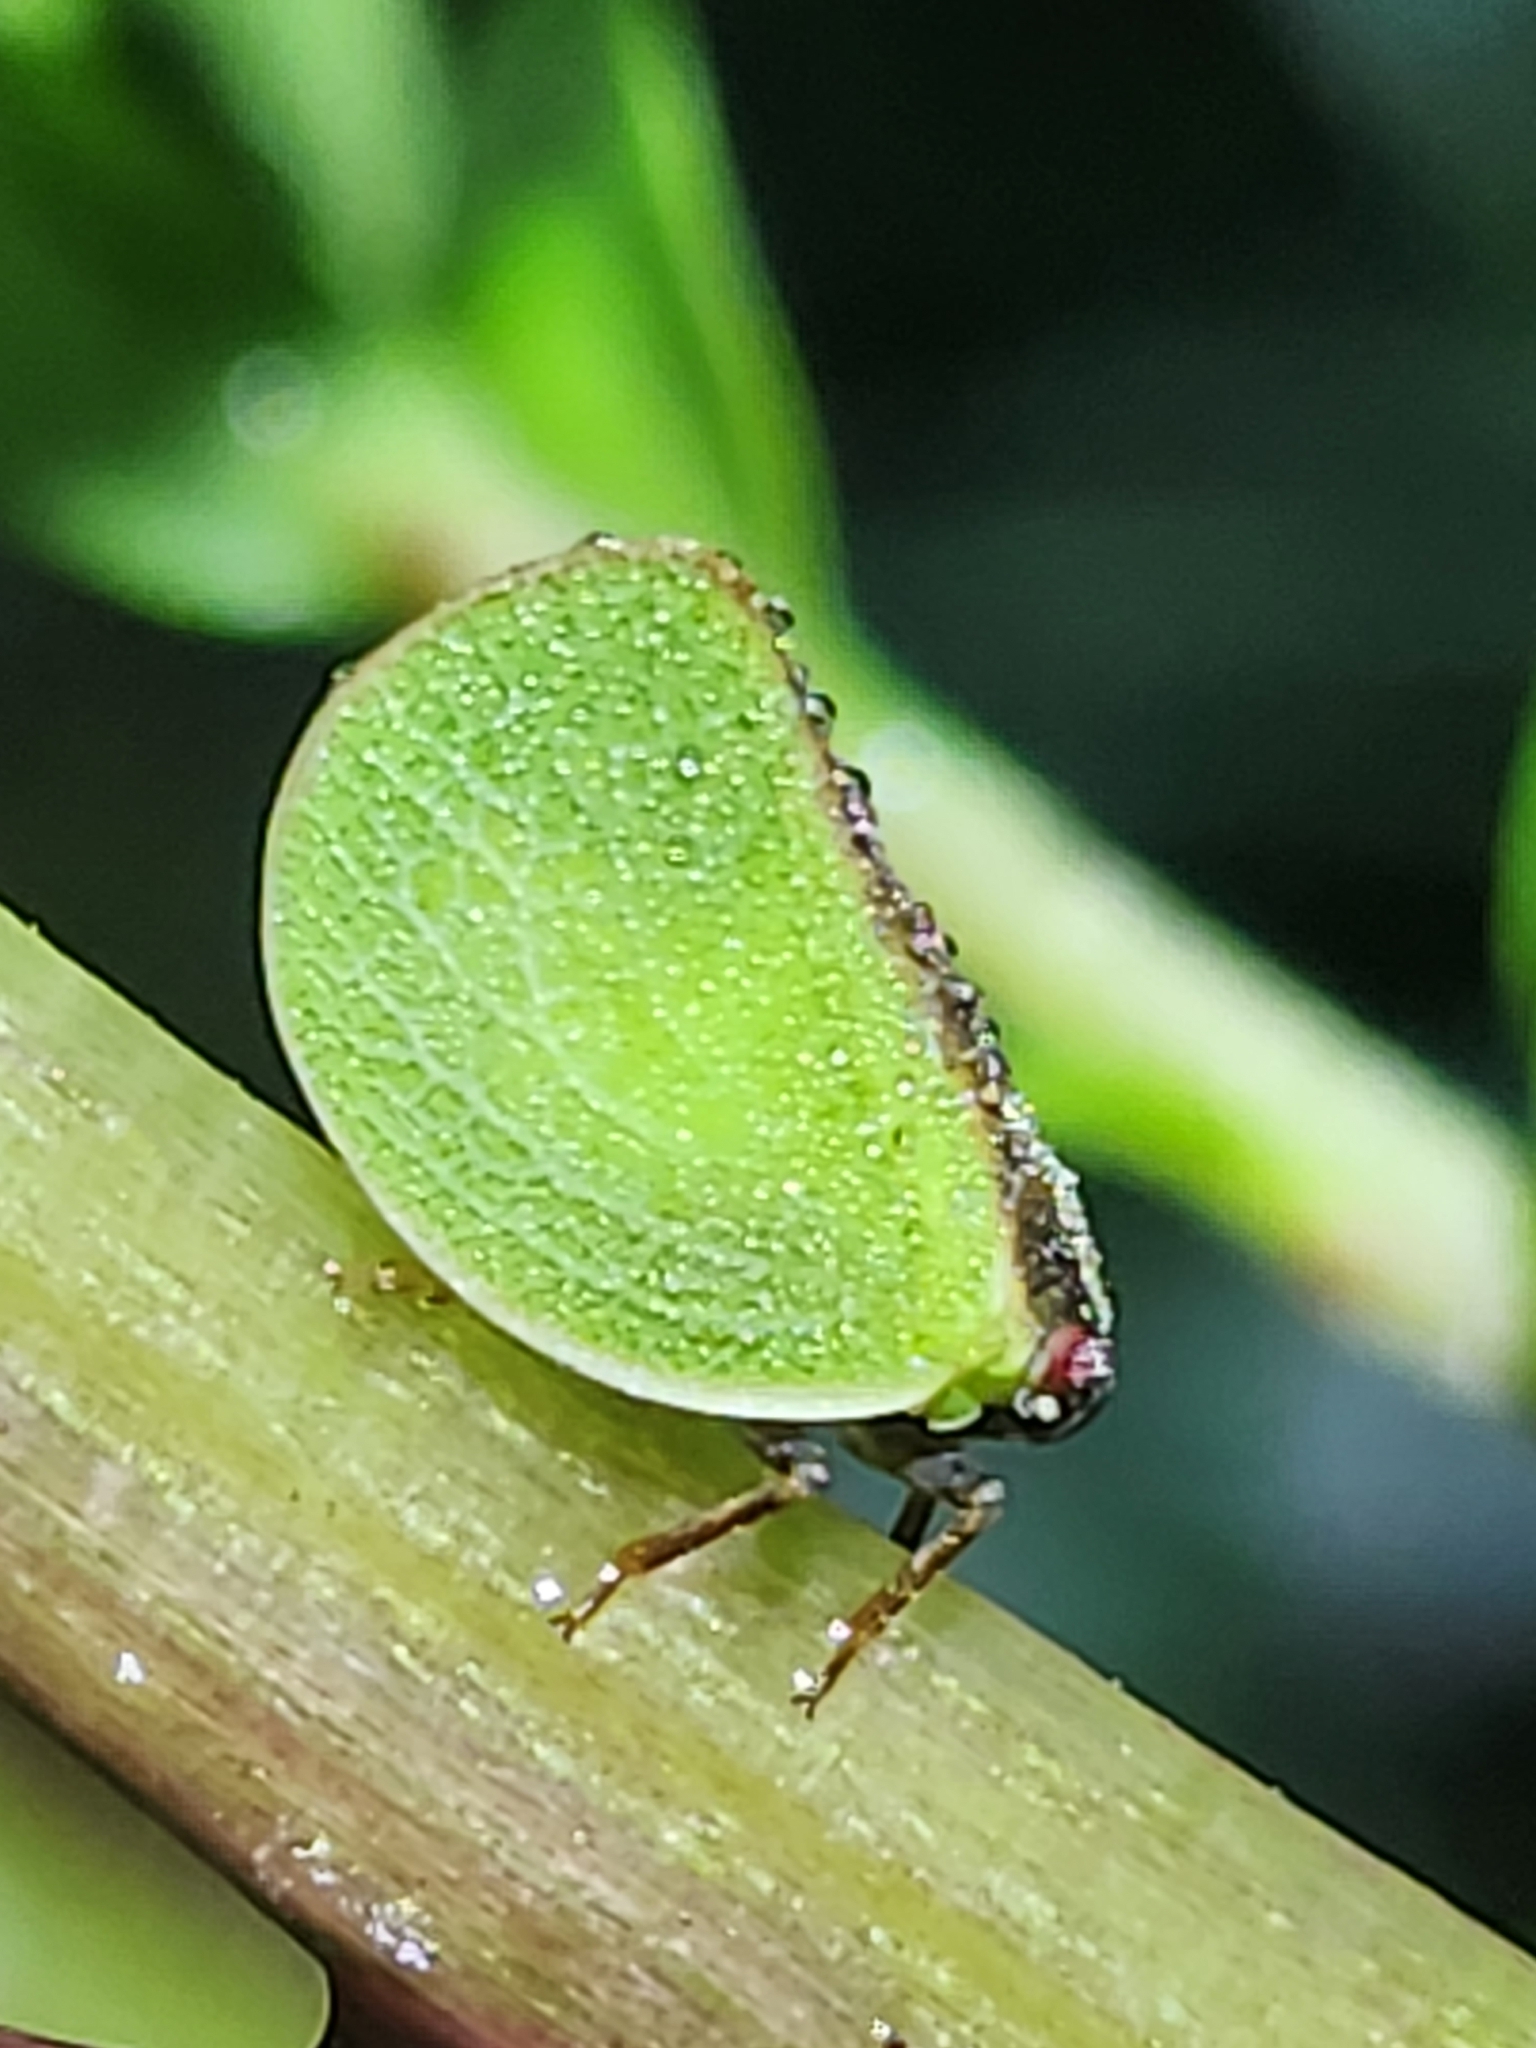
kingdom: Animalia
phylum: Arthropoda
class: Insecta
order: Hemiptera
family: Acanaloniidae
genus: Acanalonia
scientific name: Acanalonia bivittata
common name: Two-striped planthopper
